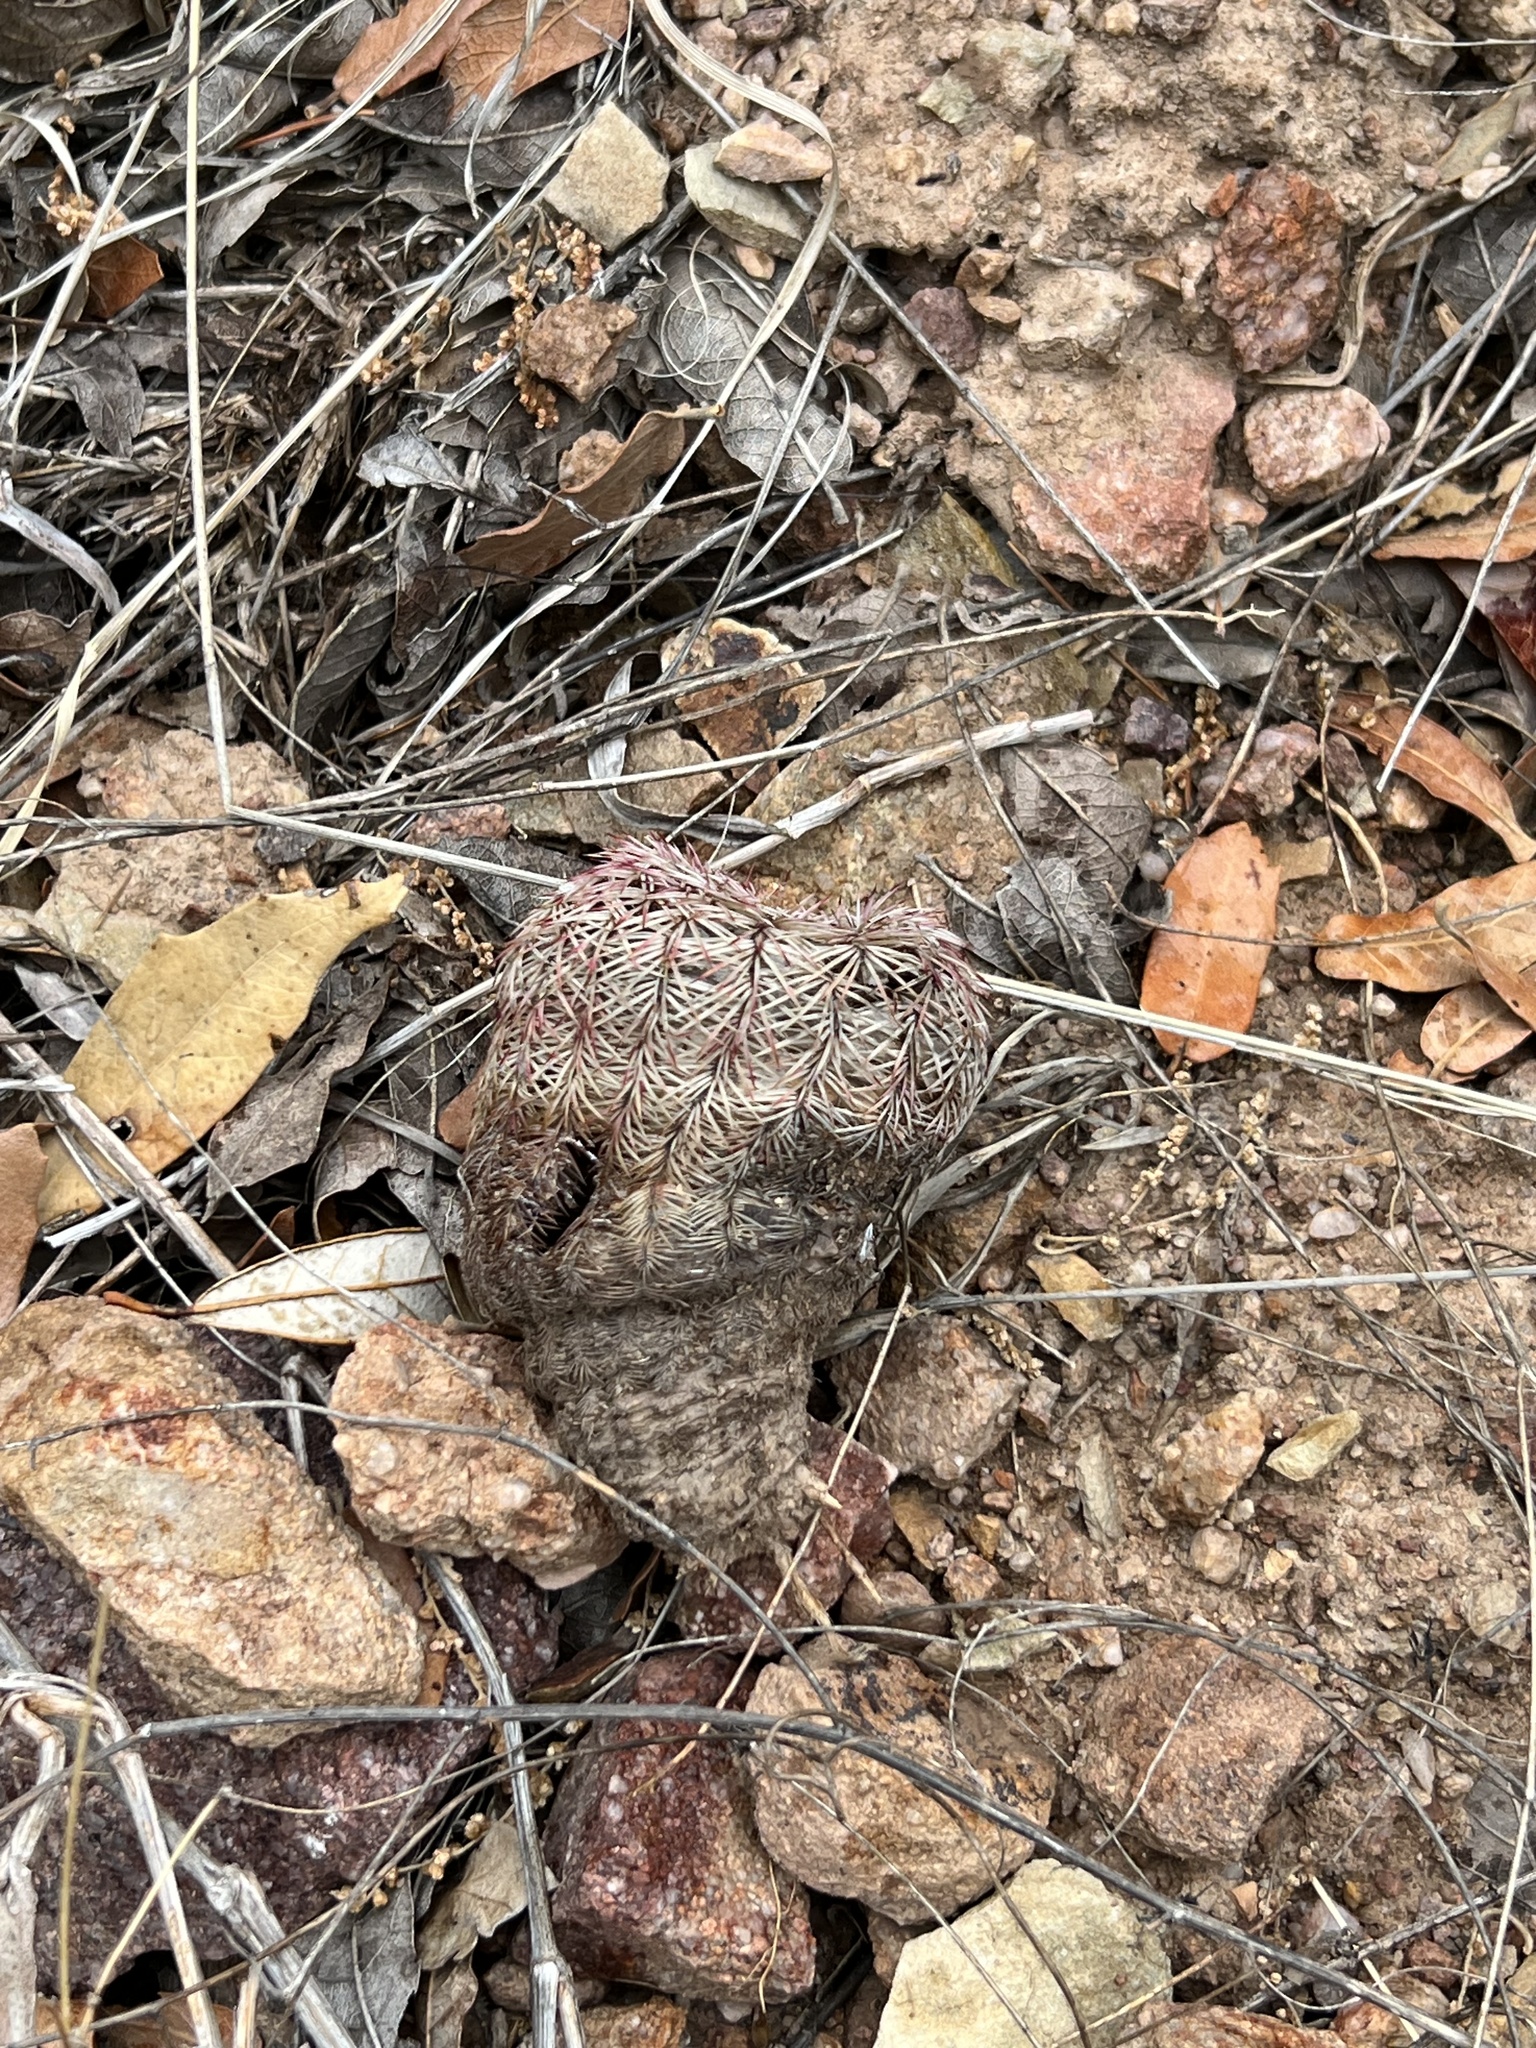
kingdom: Plantae
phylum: Tracheophyta
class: Magnoliopsida
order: Caryophyllales
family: Cactaceae
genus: Echinocereus
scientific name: Echinocereus rigidissimus
